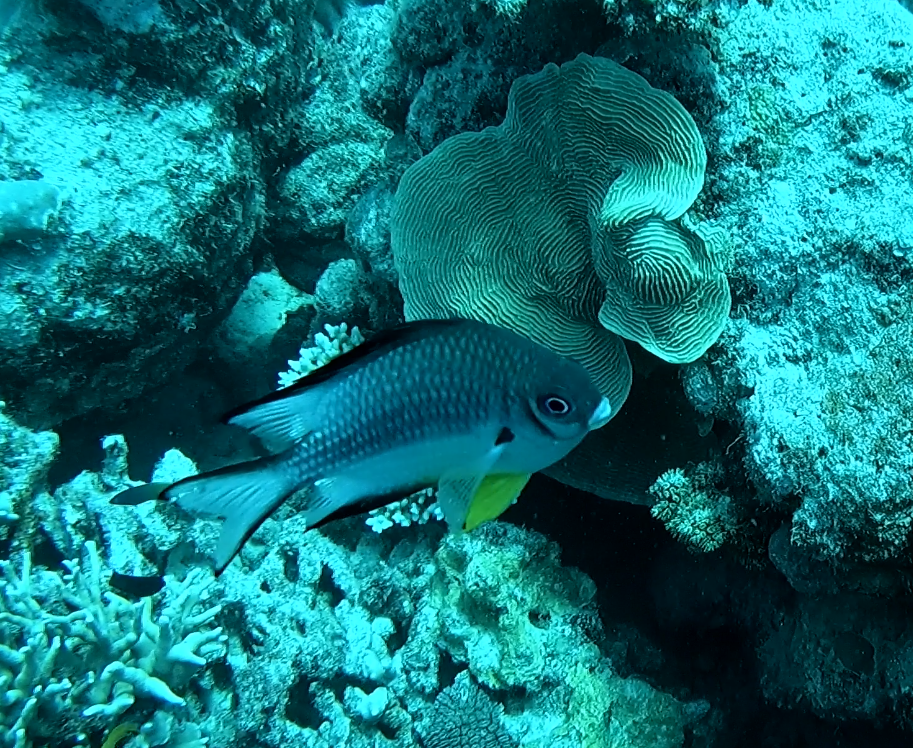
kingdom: Animalia
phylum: Chordata
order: Perciformes
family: Pomacentridae
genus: Amblyglyphidodon
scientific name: Amblyglyphidodon leucogaster
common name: White-belly damsel
